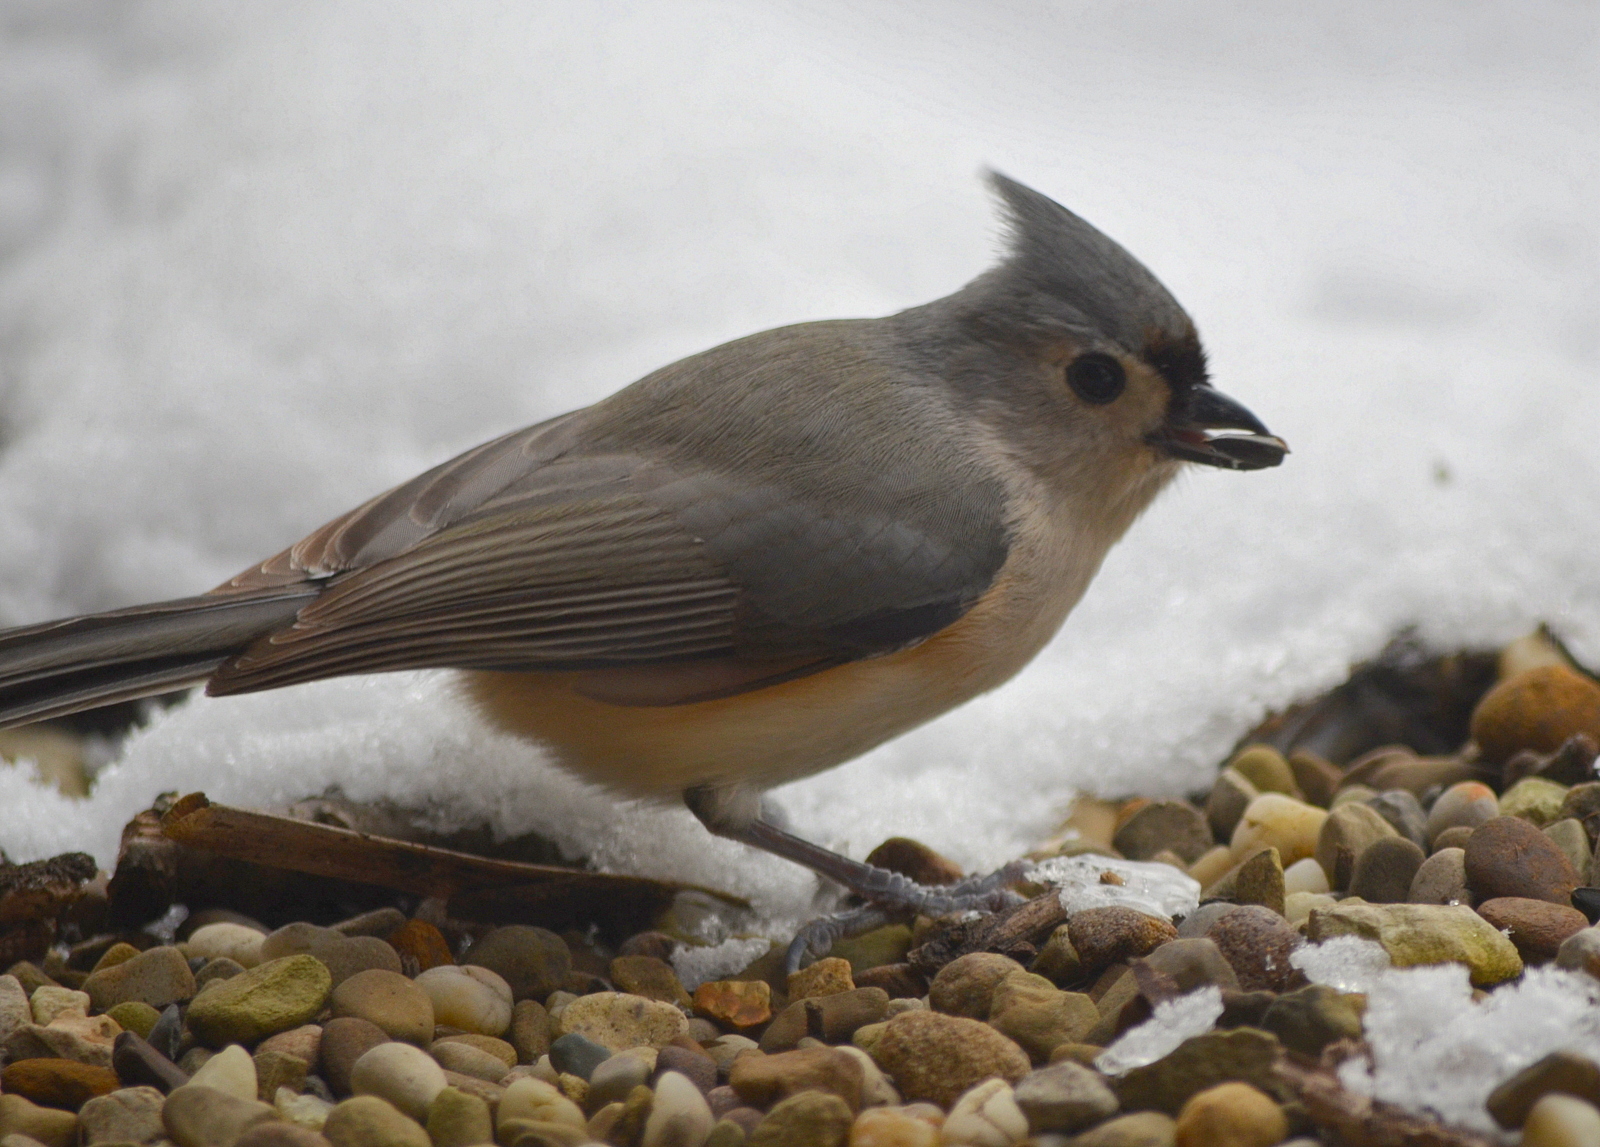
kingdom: Animalia
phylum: Chordata
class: Aves
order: Passeriformes
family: Paridae
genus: Baeolophus
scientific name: Baeolophus bicolor
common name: Tufted titmouse
